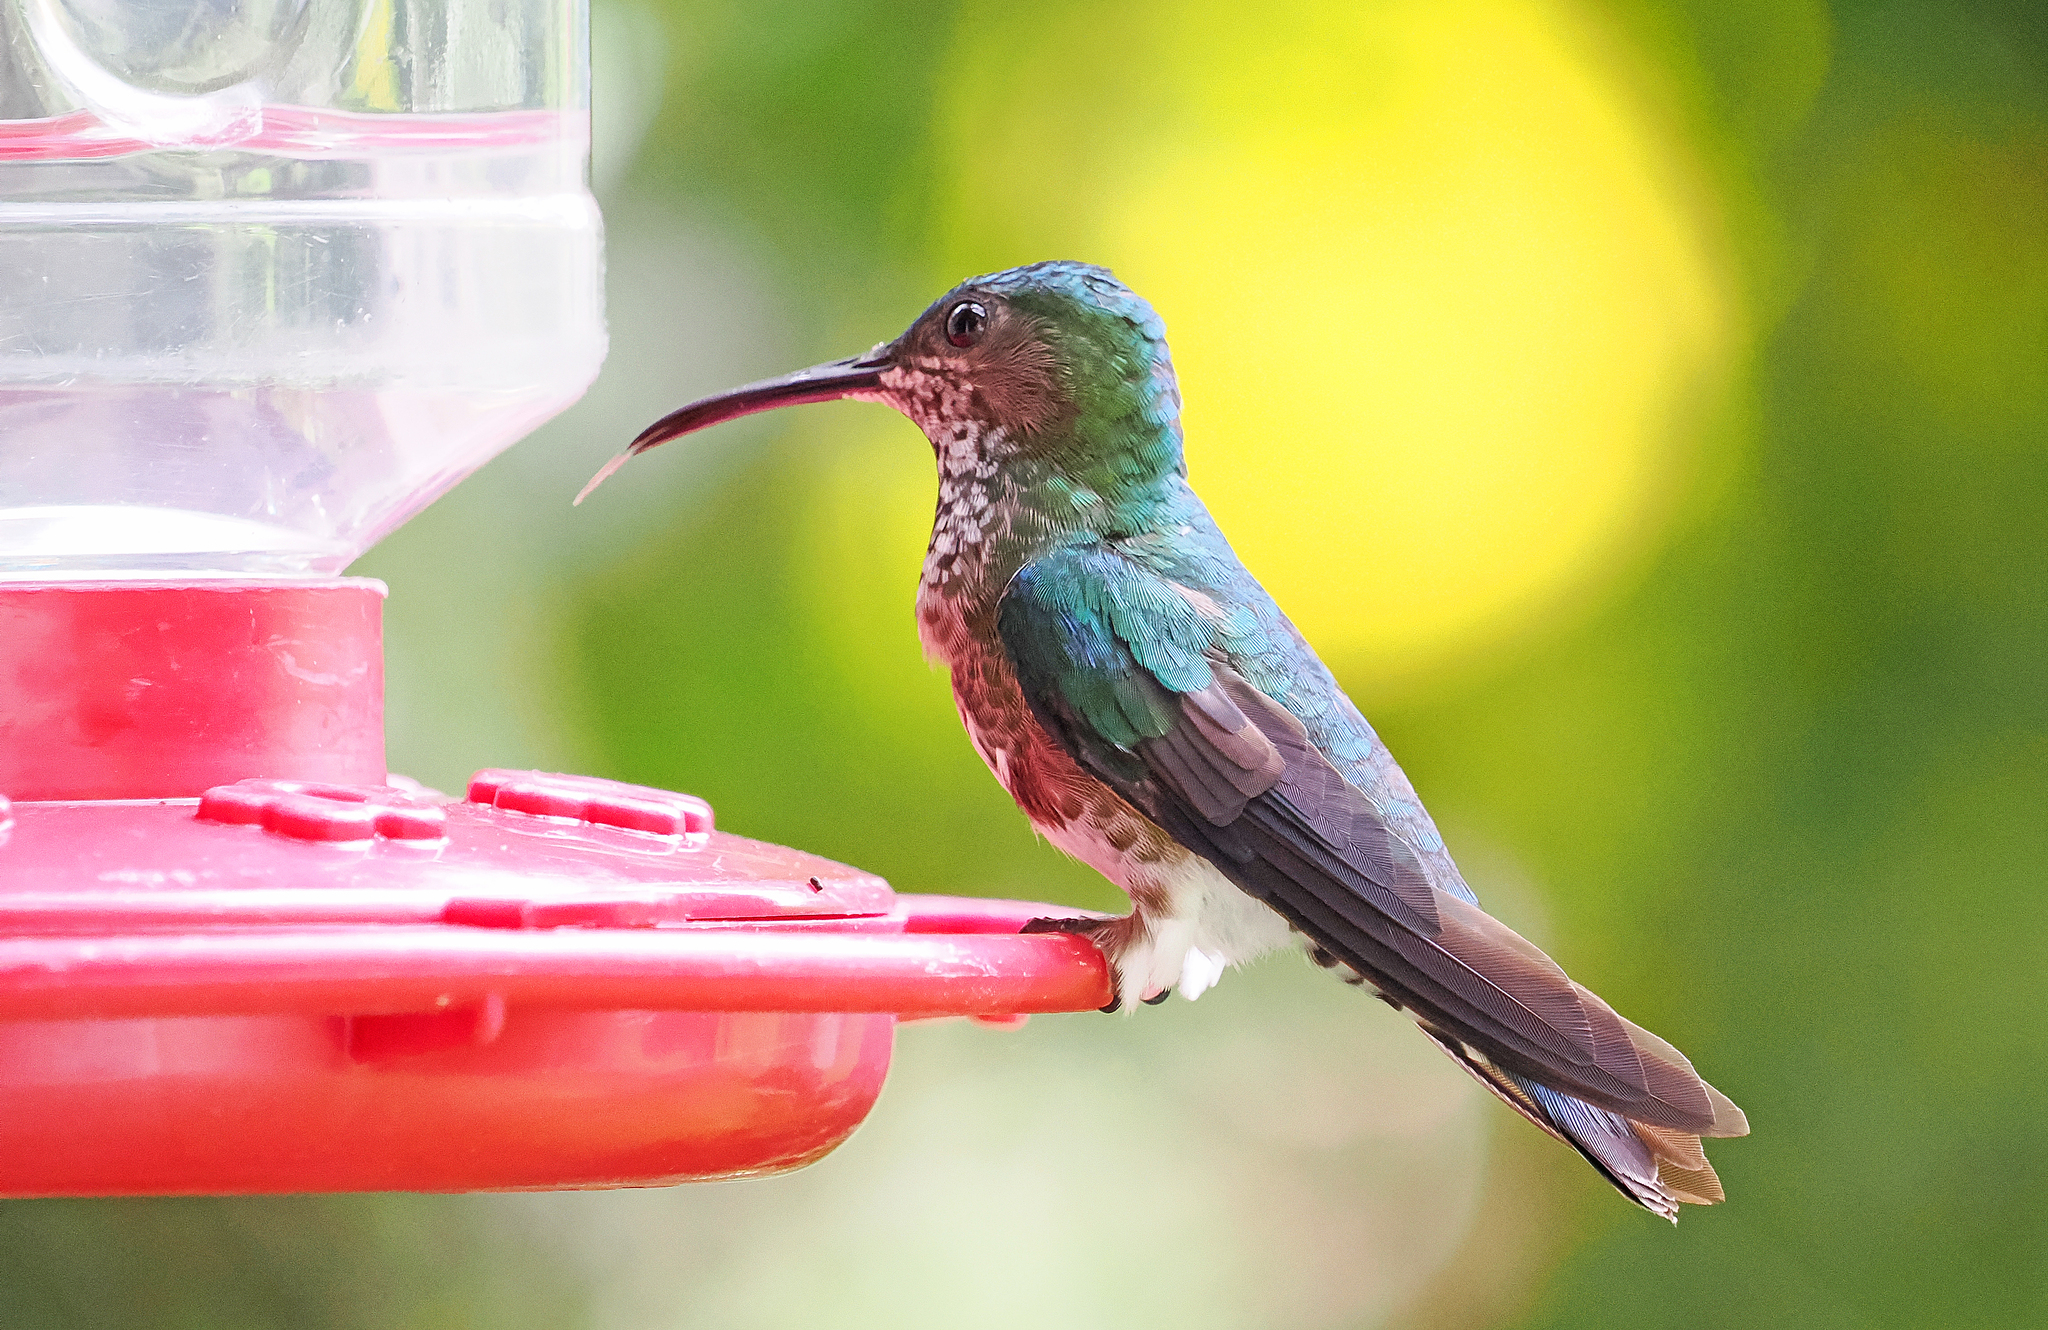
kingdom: Animalia
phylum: Chordata
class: Aves
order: Apodiformes
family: Trochilidae
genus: Florisuga
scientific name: Florisuga mellivora
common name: White-necked jacobin
